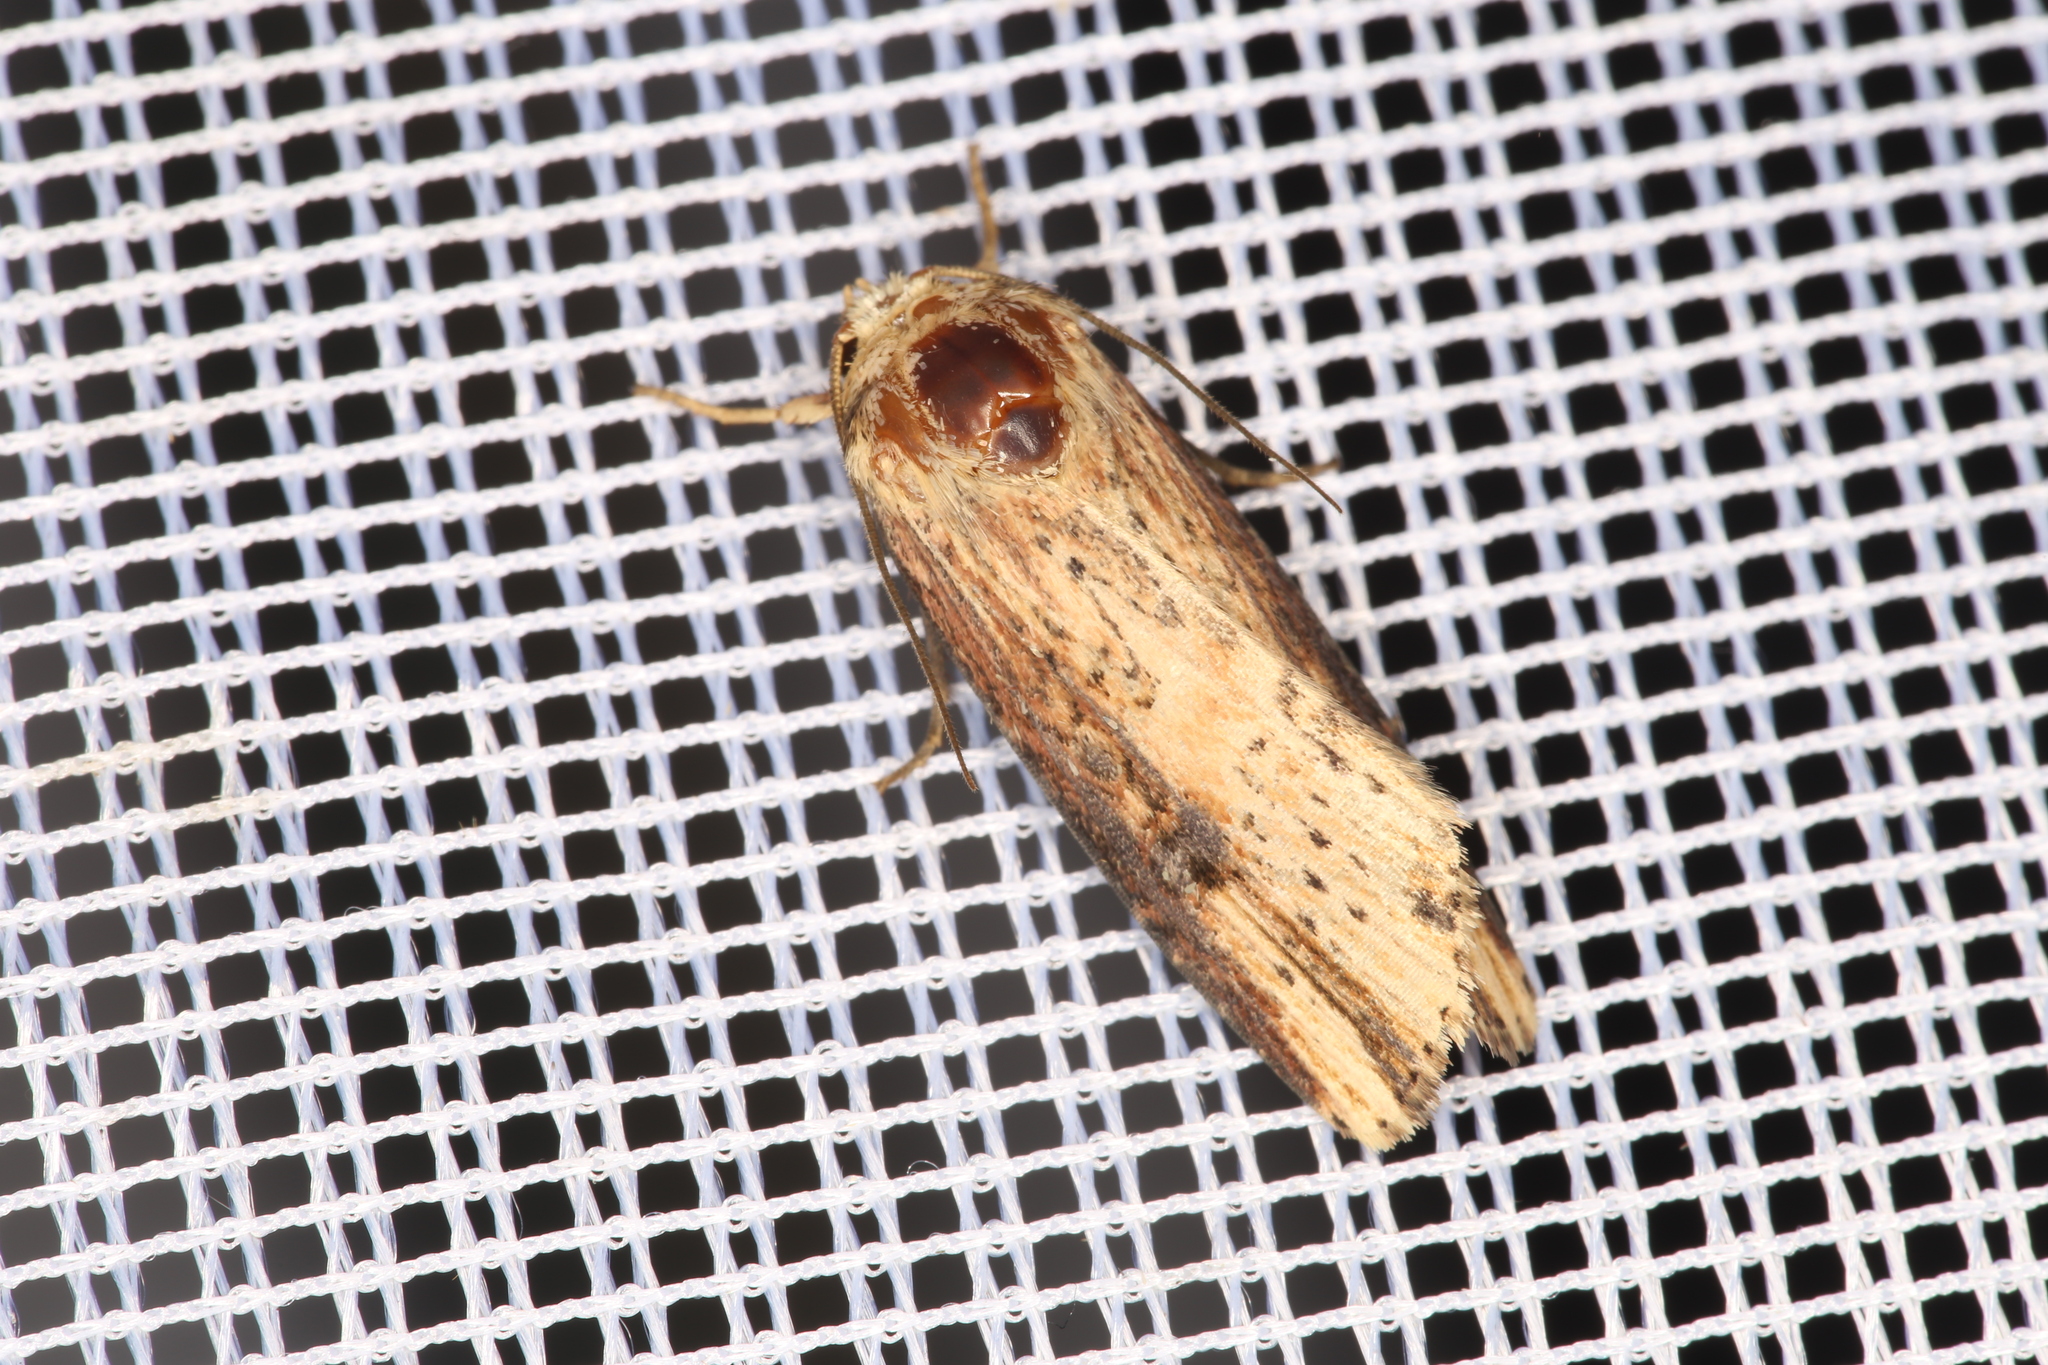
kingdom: Animalia
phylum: Arthropoda
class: Insecta
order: Lepidoptera
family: Noctuidae
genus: Axylia
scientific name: Axylia putris
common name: Flame
